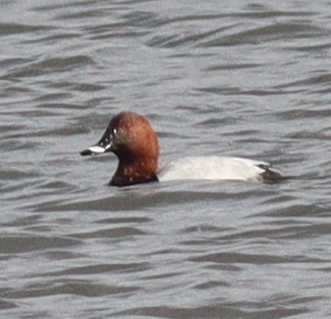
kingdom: Animalia
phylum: Chordata
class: Aves
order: Anseriformes
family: Anatidae
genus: Aythya
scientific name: Aythya ferina
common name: Common pochard
